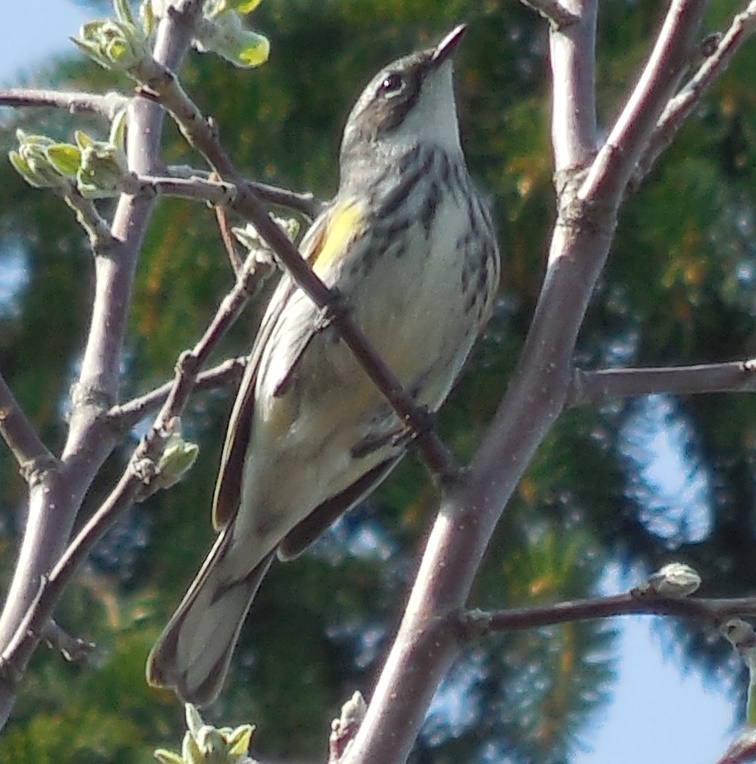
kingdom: Animalia
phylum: Chordata
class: Aves
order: Passeriformes
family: Parulidae
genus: Setophaga
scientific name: Setophaga coronata
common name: Myrtle warbler
